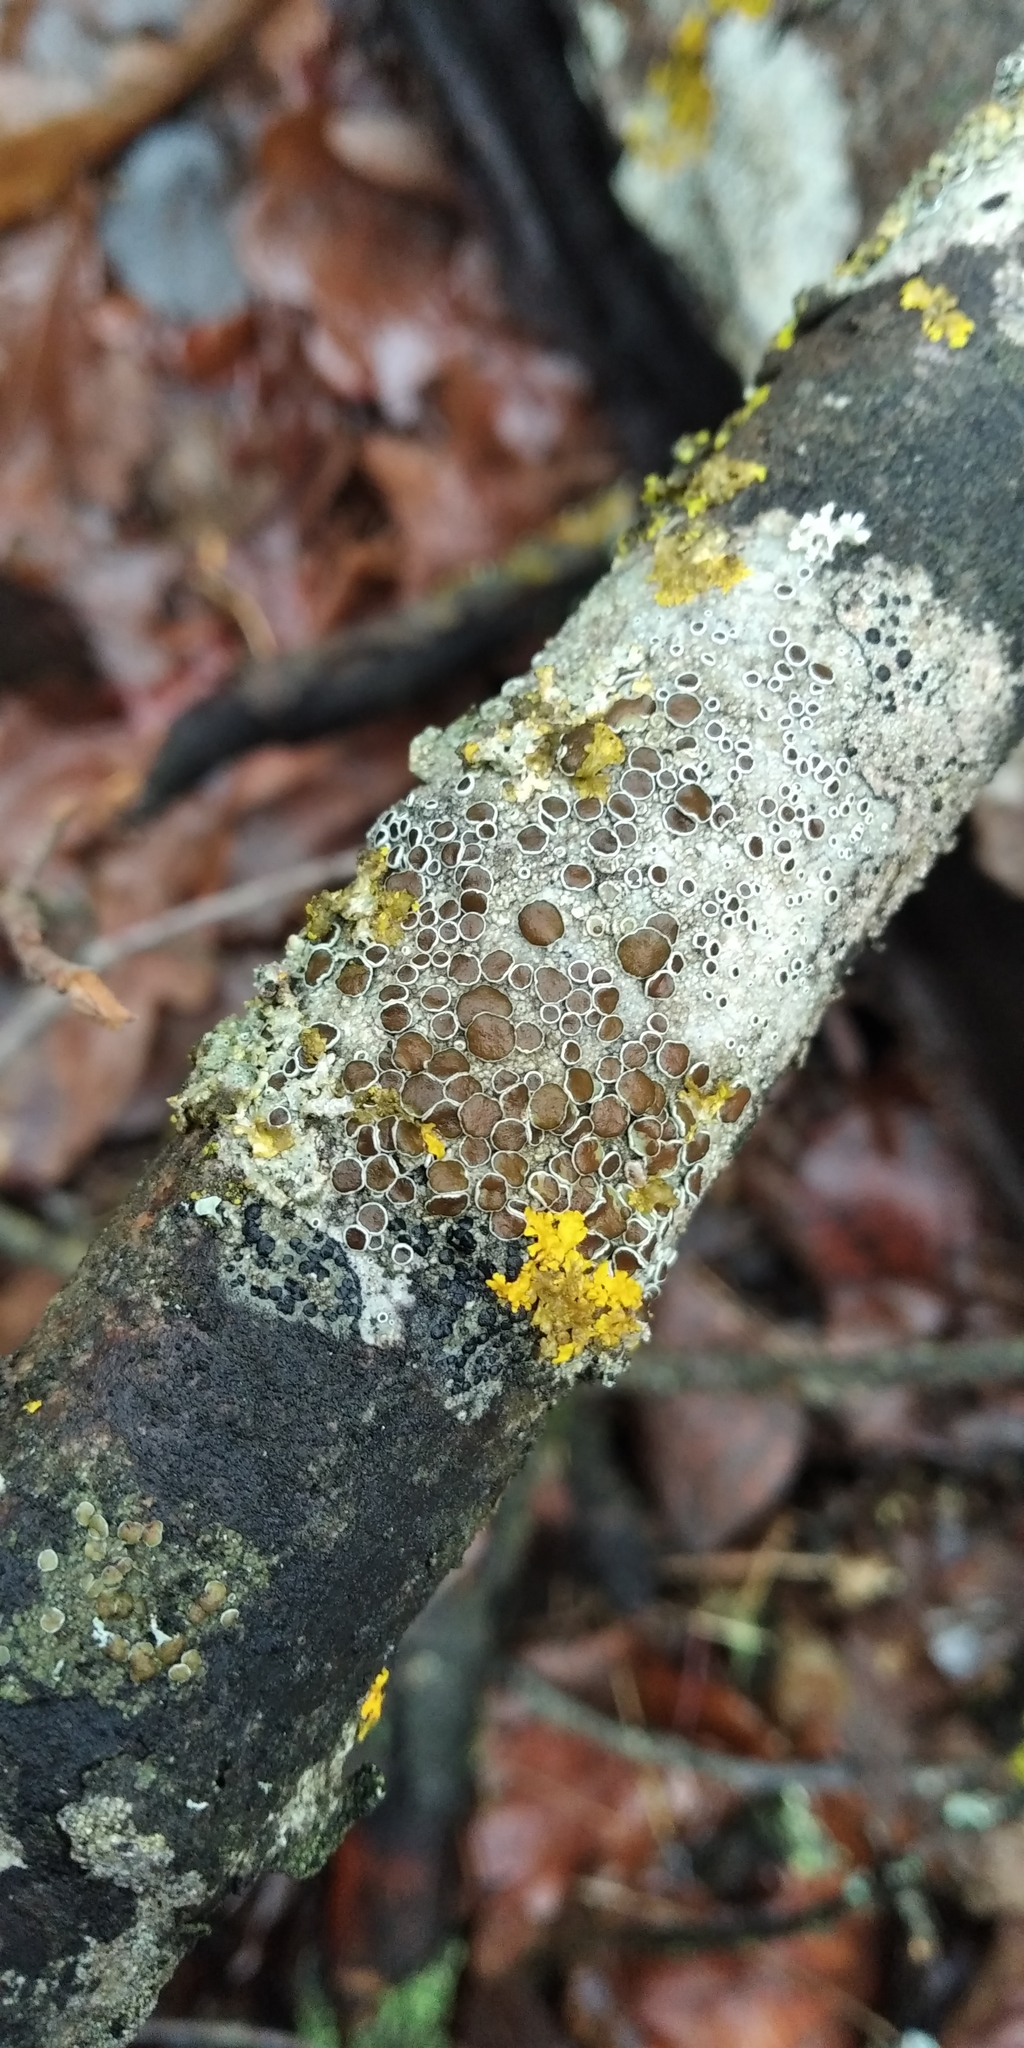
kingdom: Fungi
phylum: Ascomycota
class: Lecanoromycetes
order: Lecanorales
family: Lecanoraceae
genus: Lecanora
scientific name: Lecanora argentata
